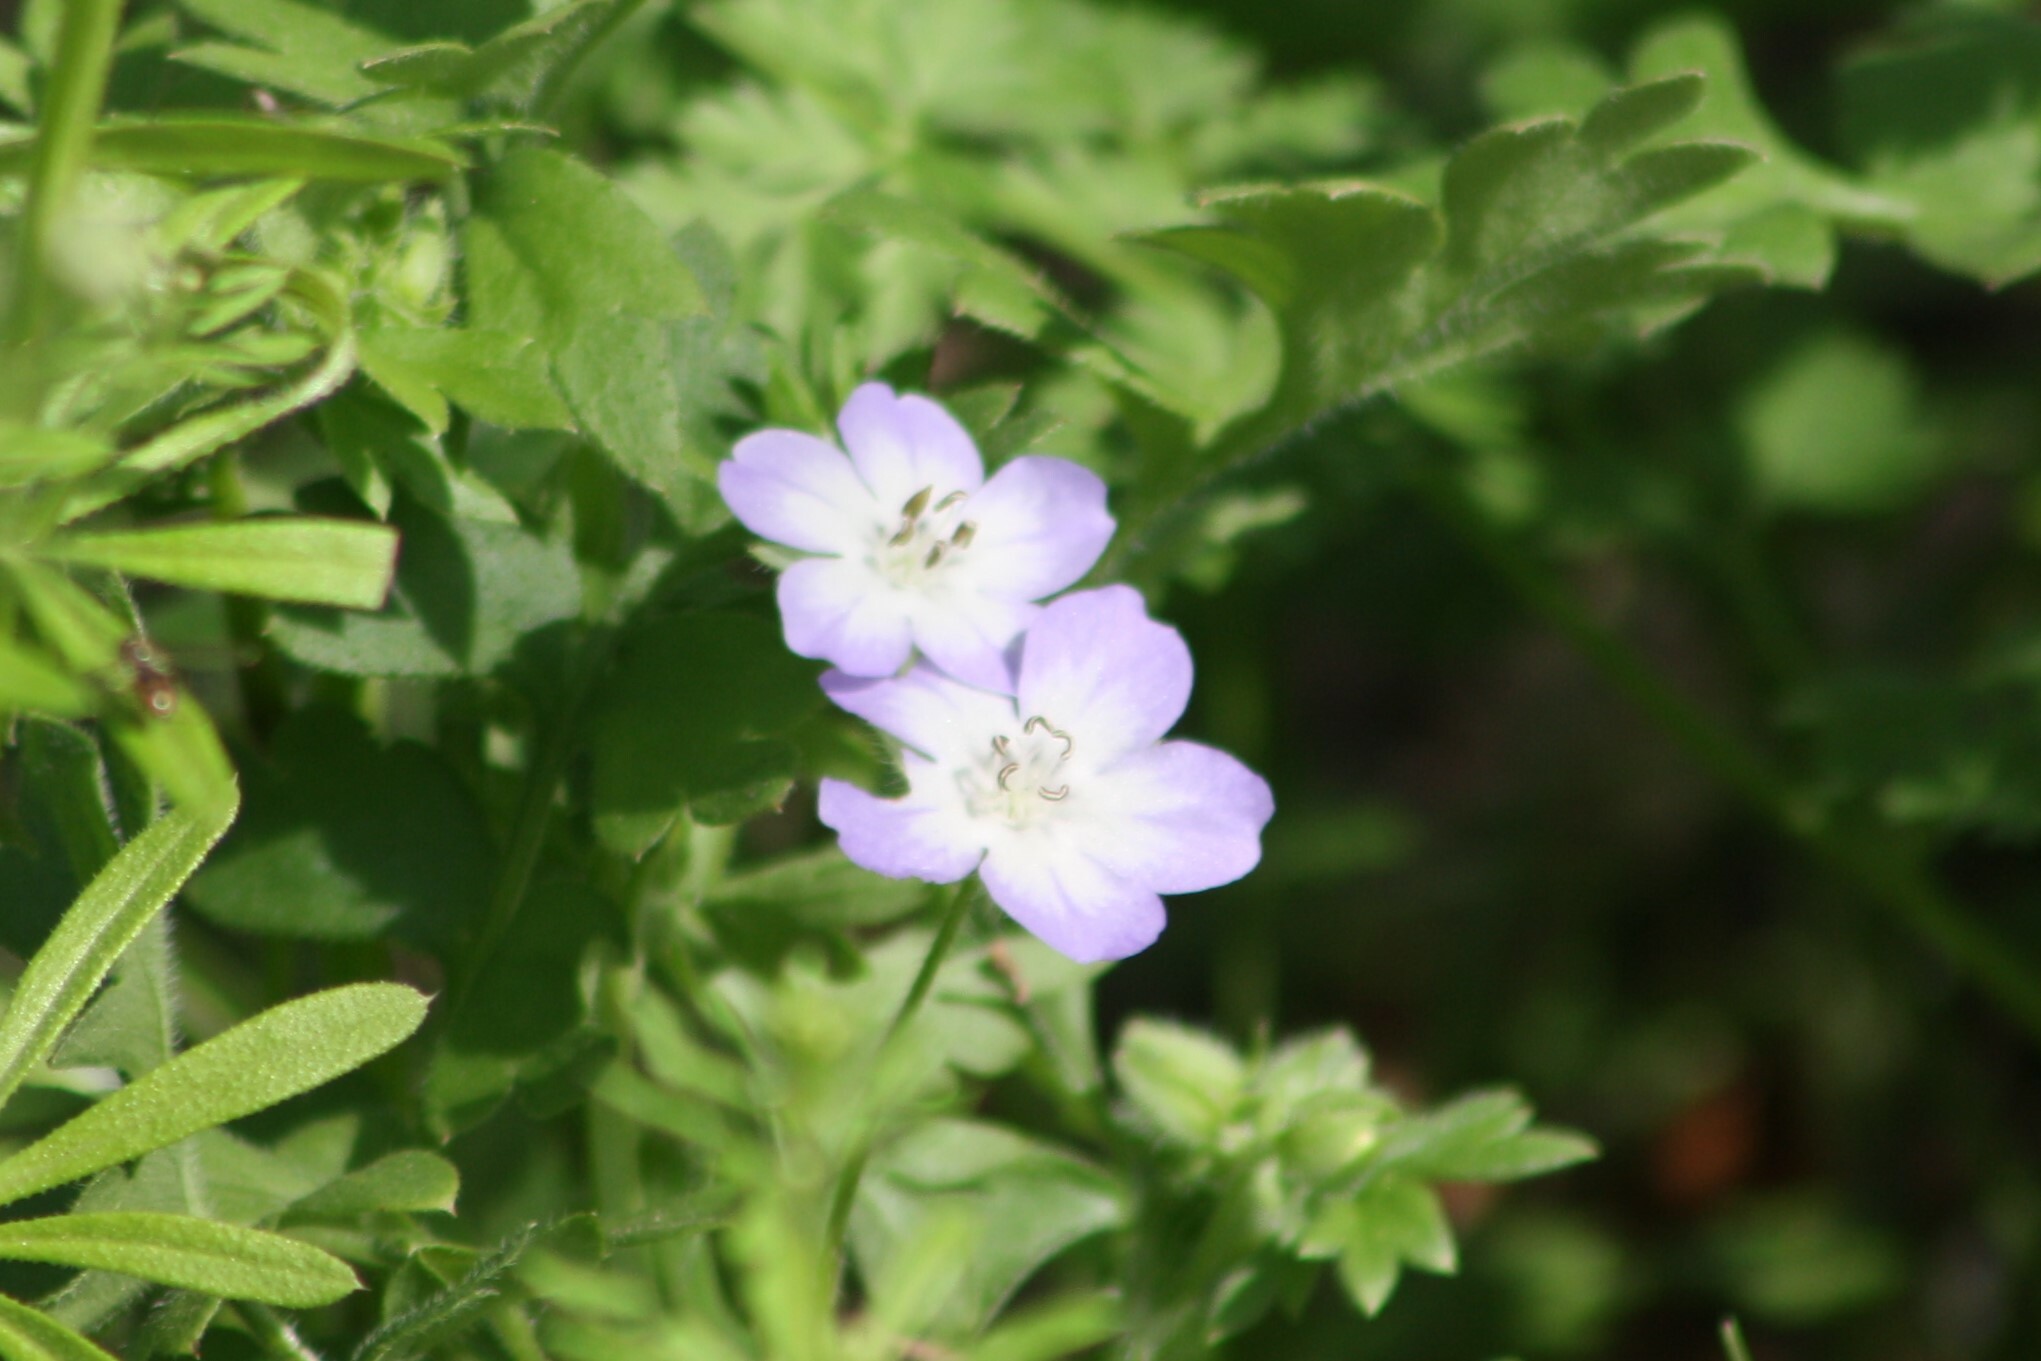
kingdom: Plantae
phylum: Tracheophyta
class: Magnoliopsida
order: Boraginales
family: Hydrophyllaceae
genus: Nemophila
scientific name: Nemophila phacelioides
